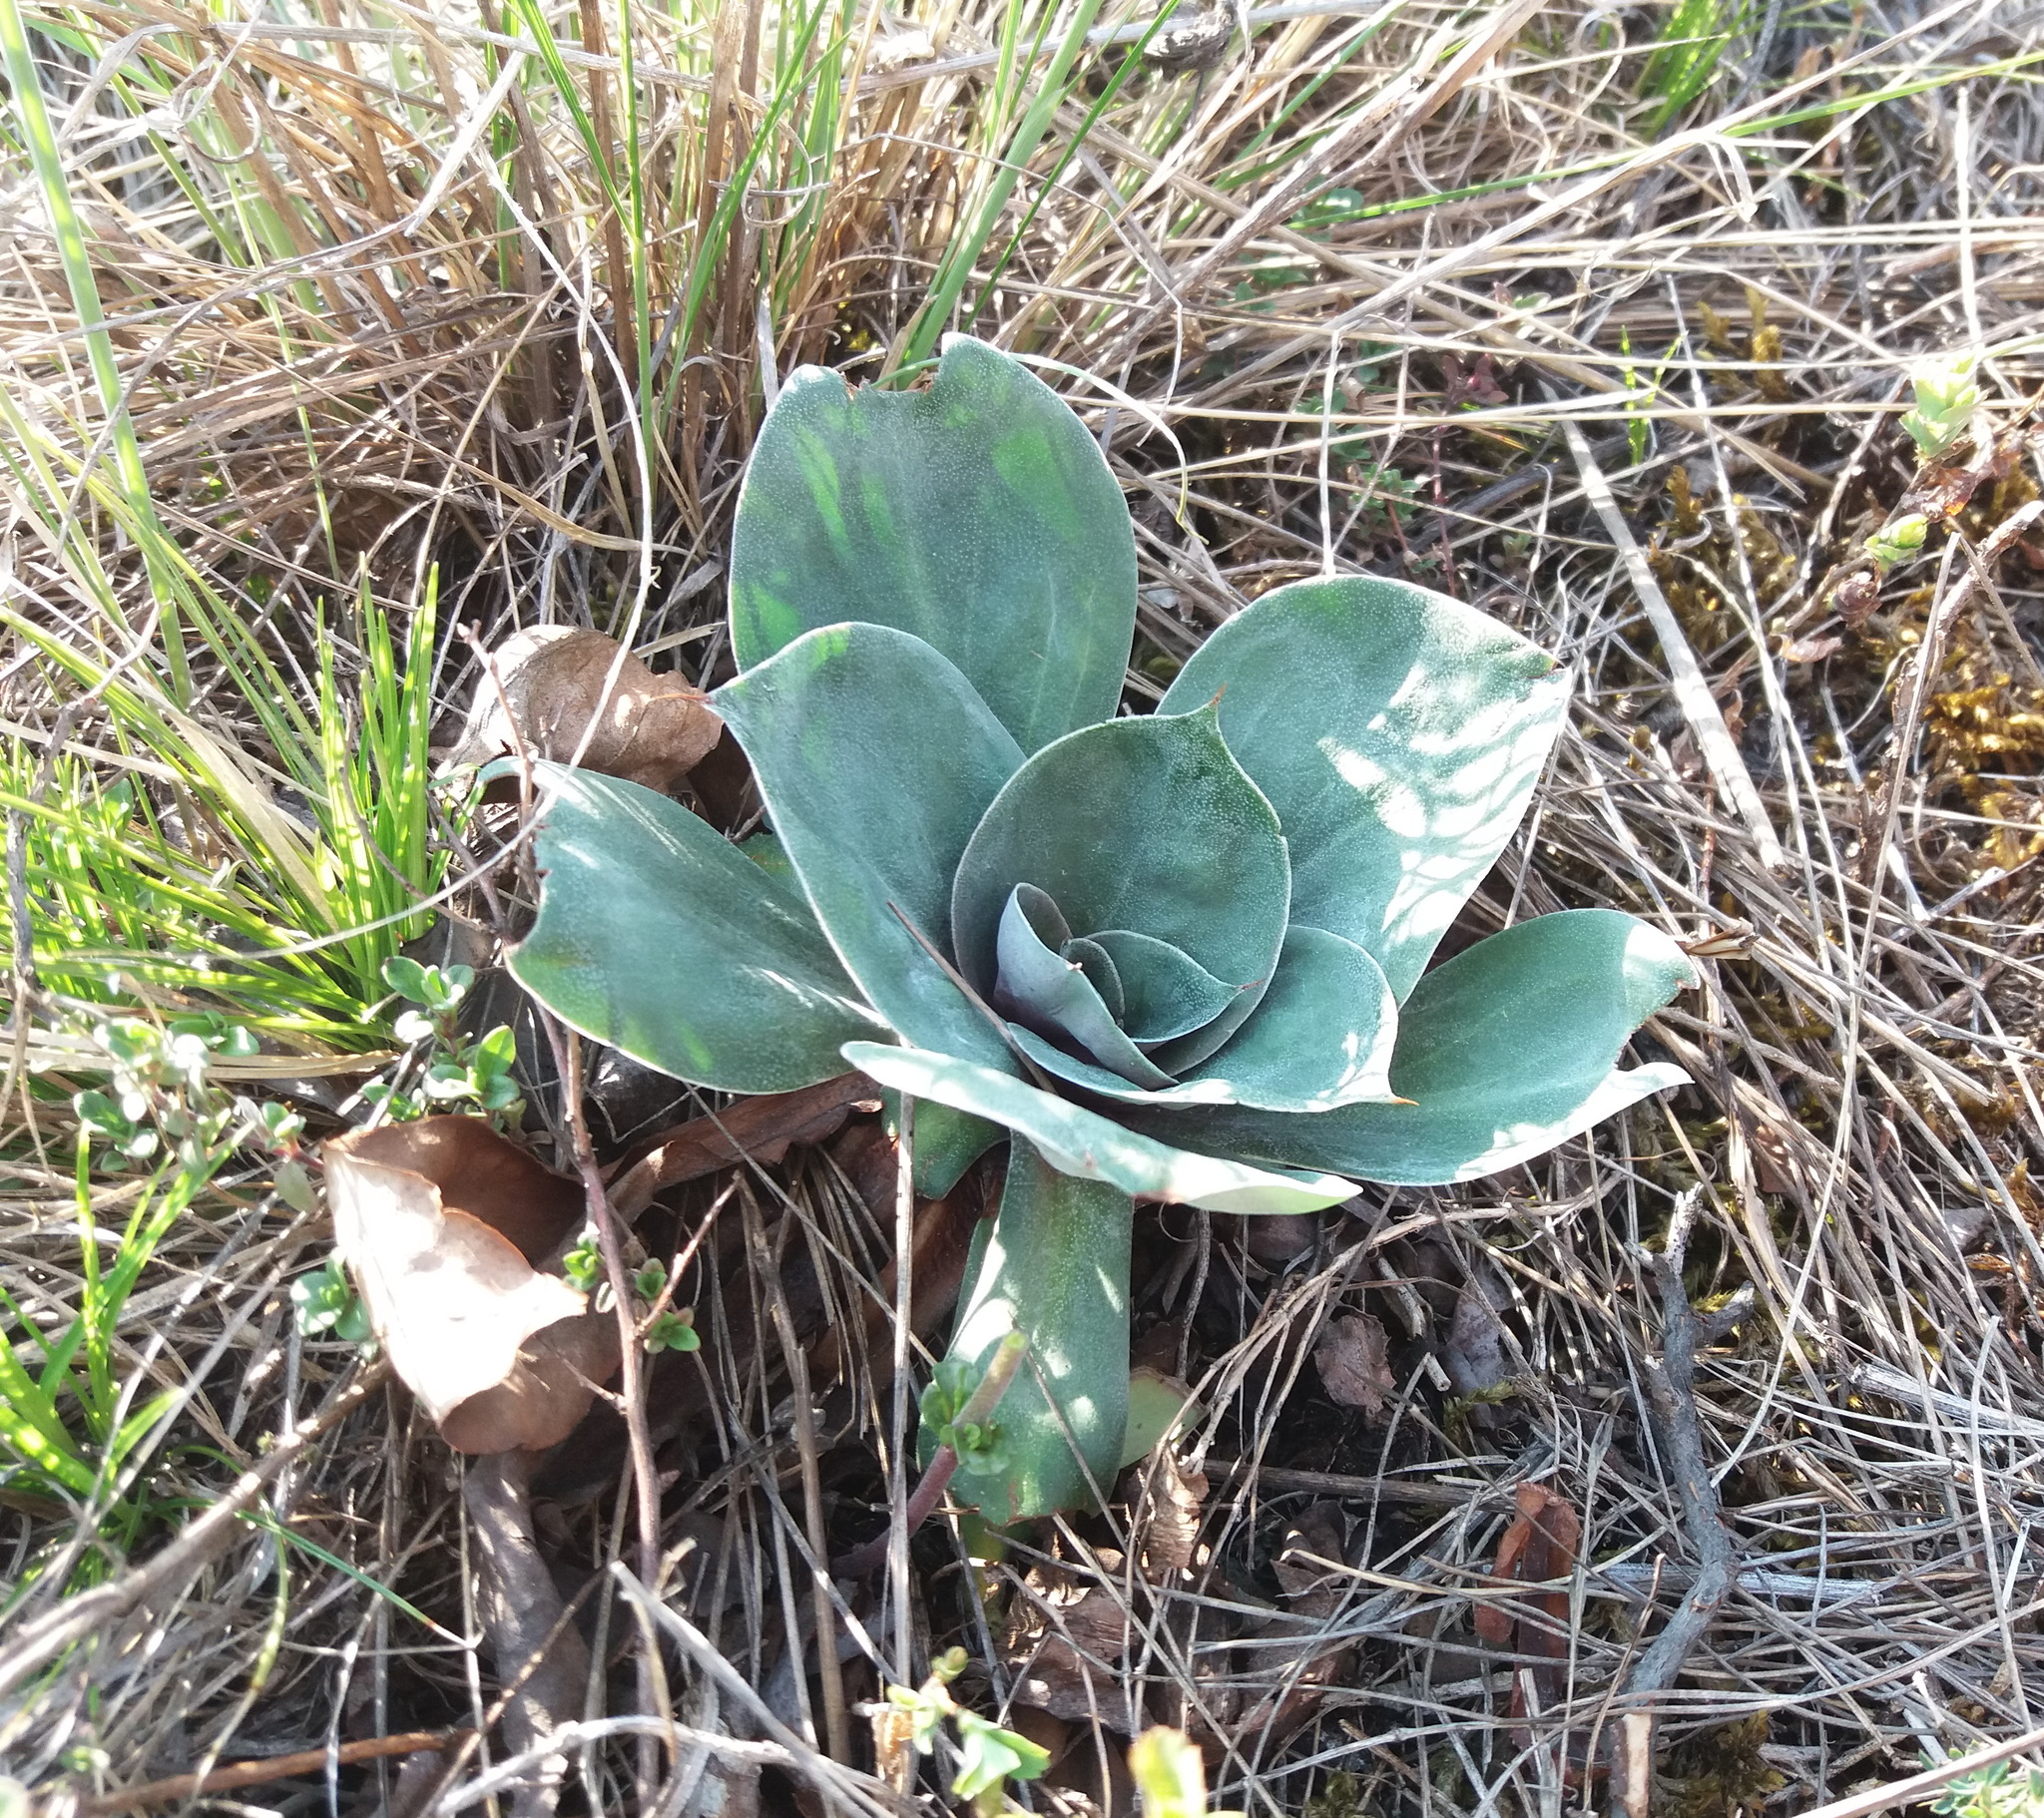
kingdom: Plantae
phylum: Tracheophyta
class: Magnoliopsida
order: Caryophyllales
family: Plumbaginaceae
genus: Goniolimon
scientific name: Goniolimon speciosum
